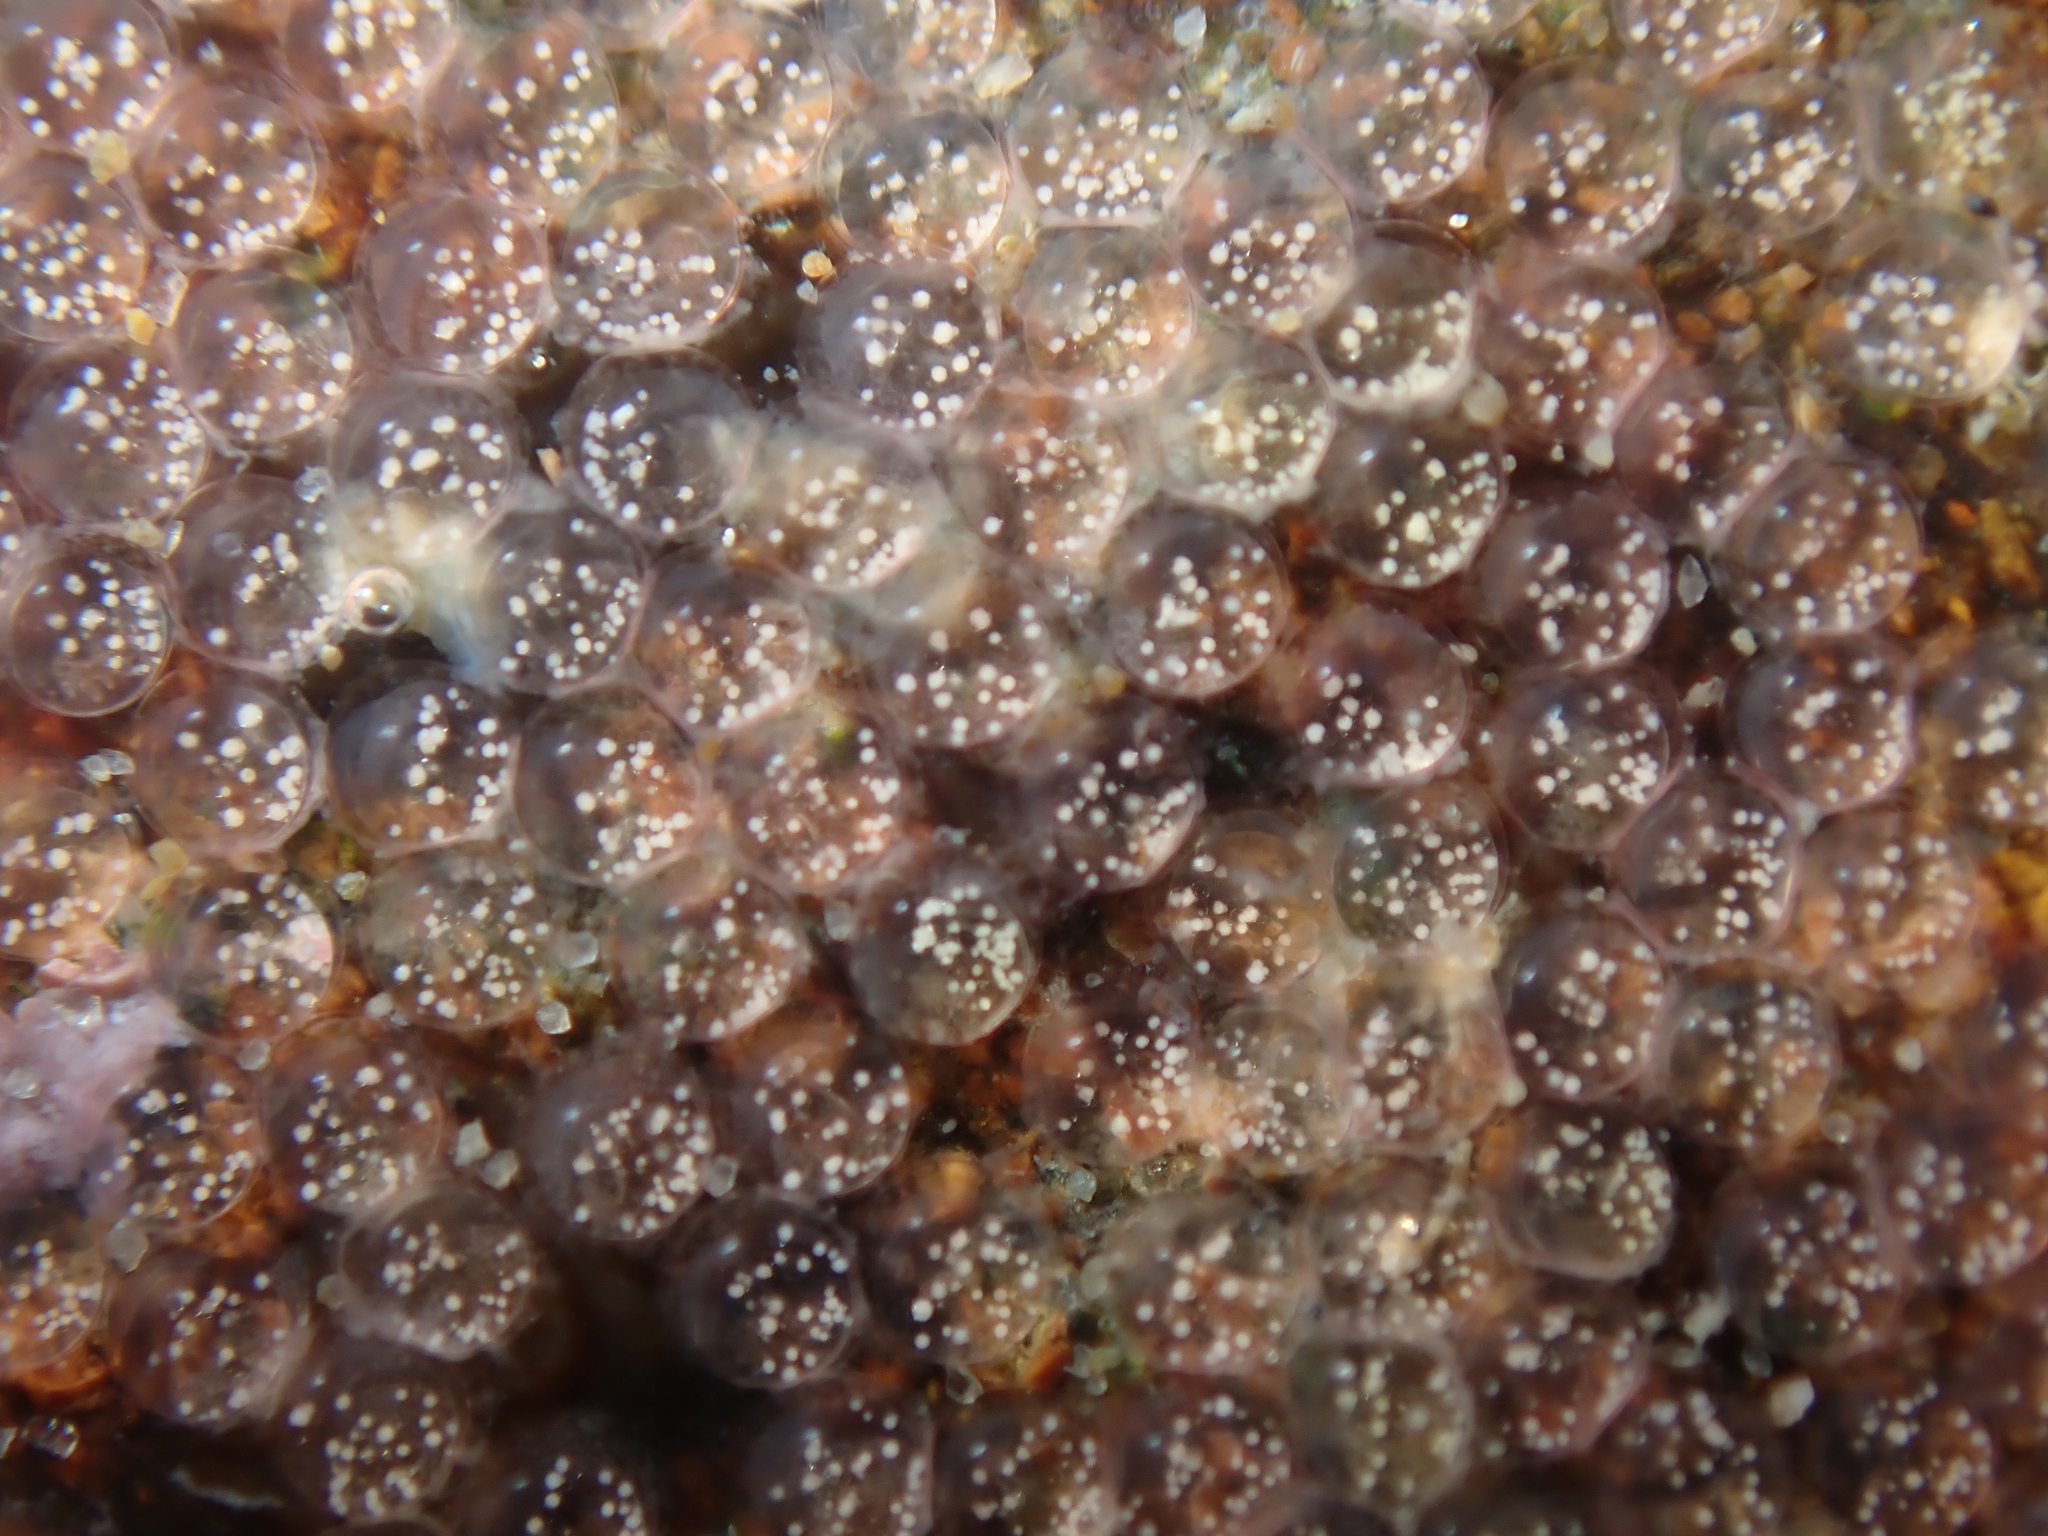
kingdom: Animalia
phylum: Chordata
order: Perciformes
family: Tripterygiidae
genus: Forsterygion
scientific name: Forsterygion lapillum
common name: Common triplefin
